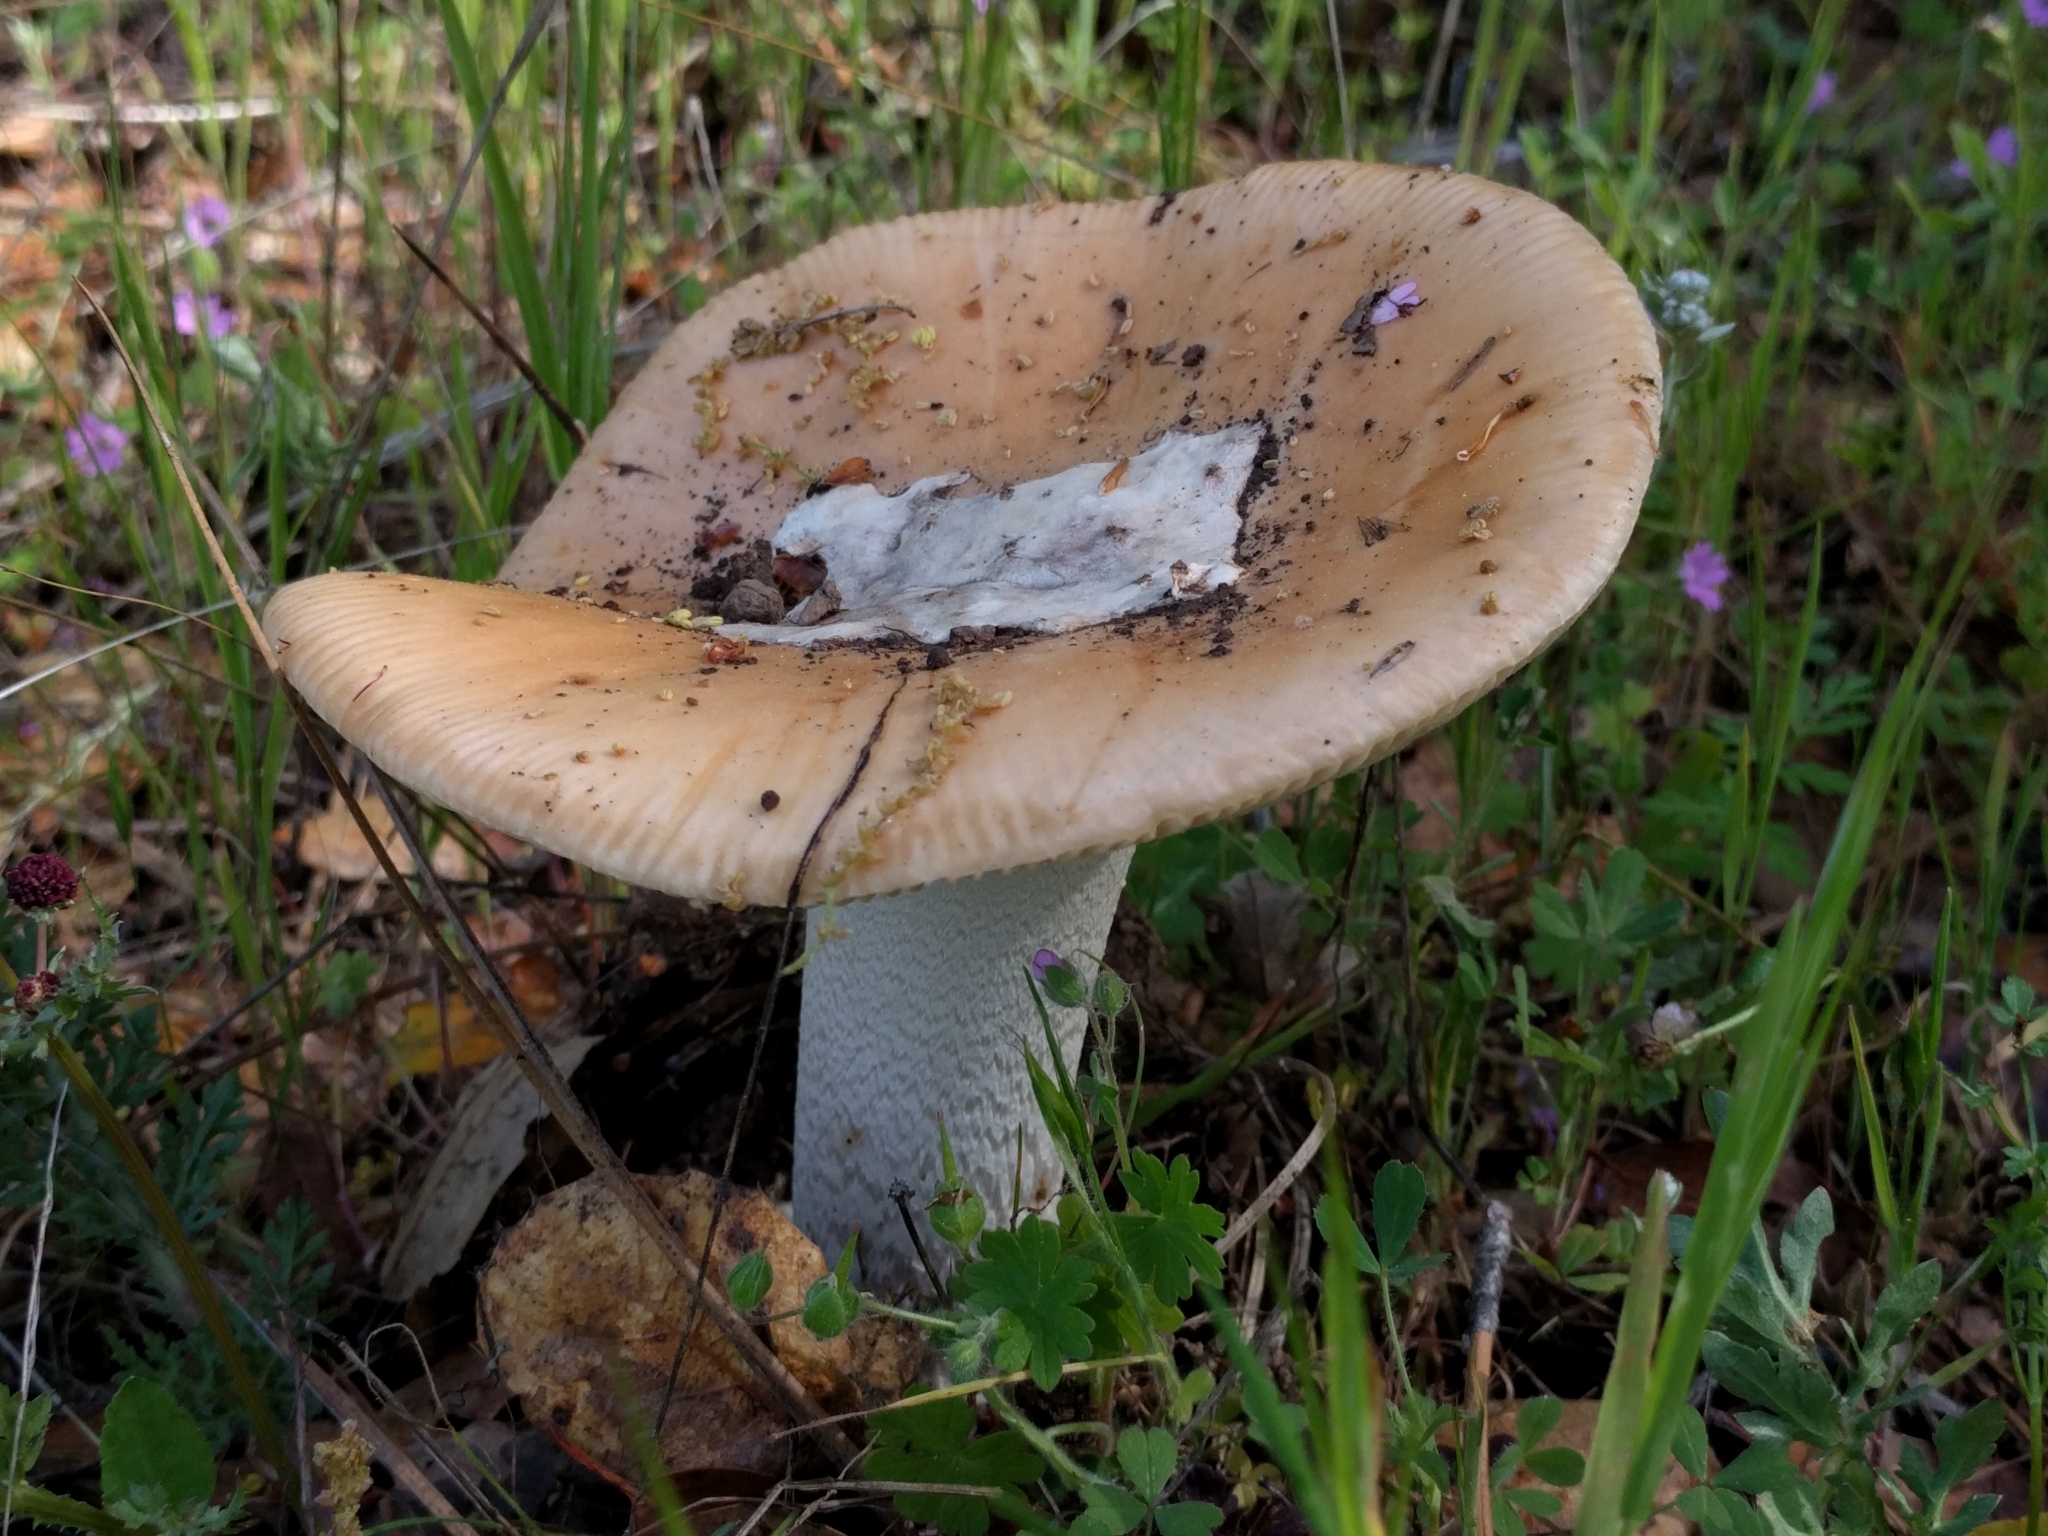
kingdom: Fungi
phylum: Basidiomycota
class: Agaricomycetes
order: Agaricales
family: Amanitaceae
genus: Amanita
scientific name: Amanita velosa
